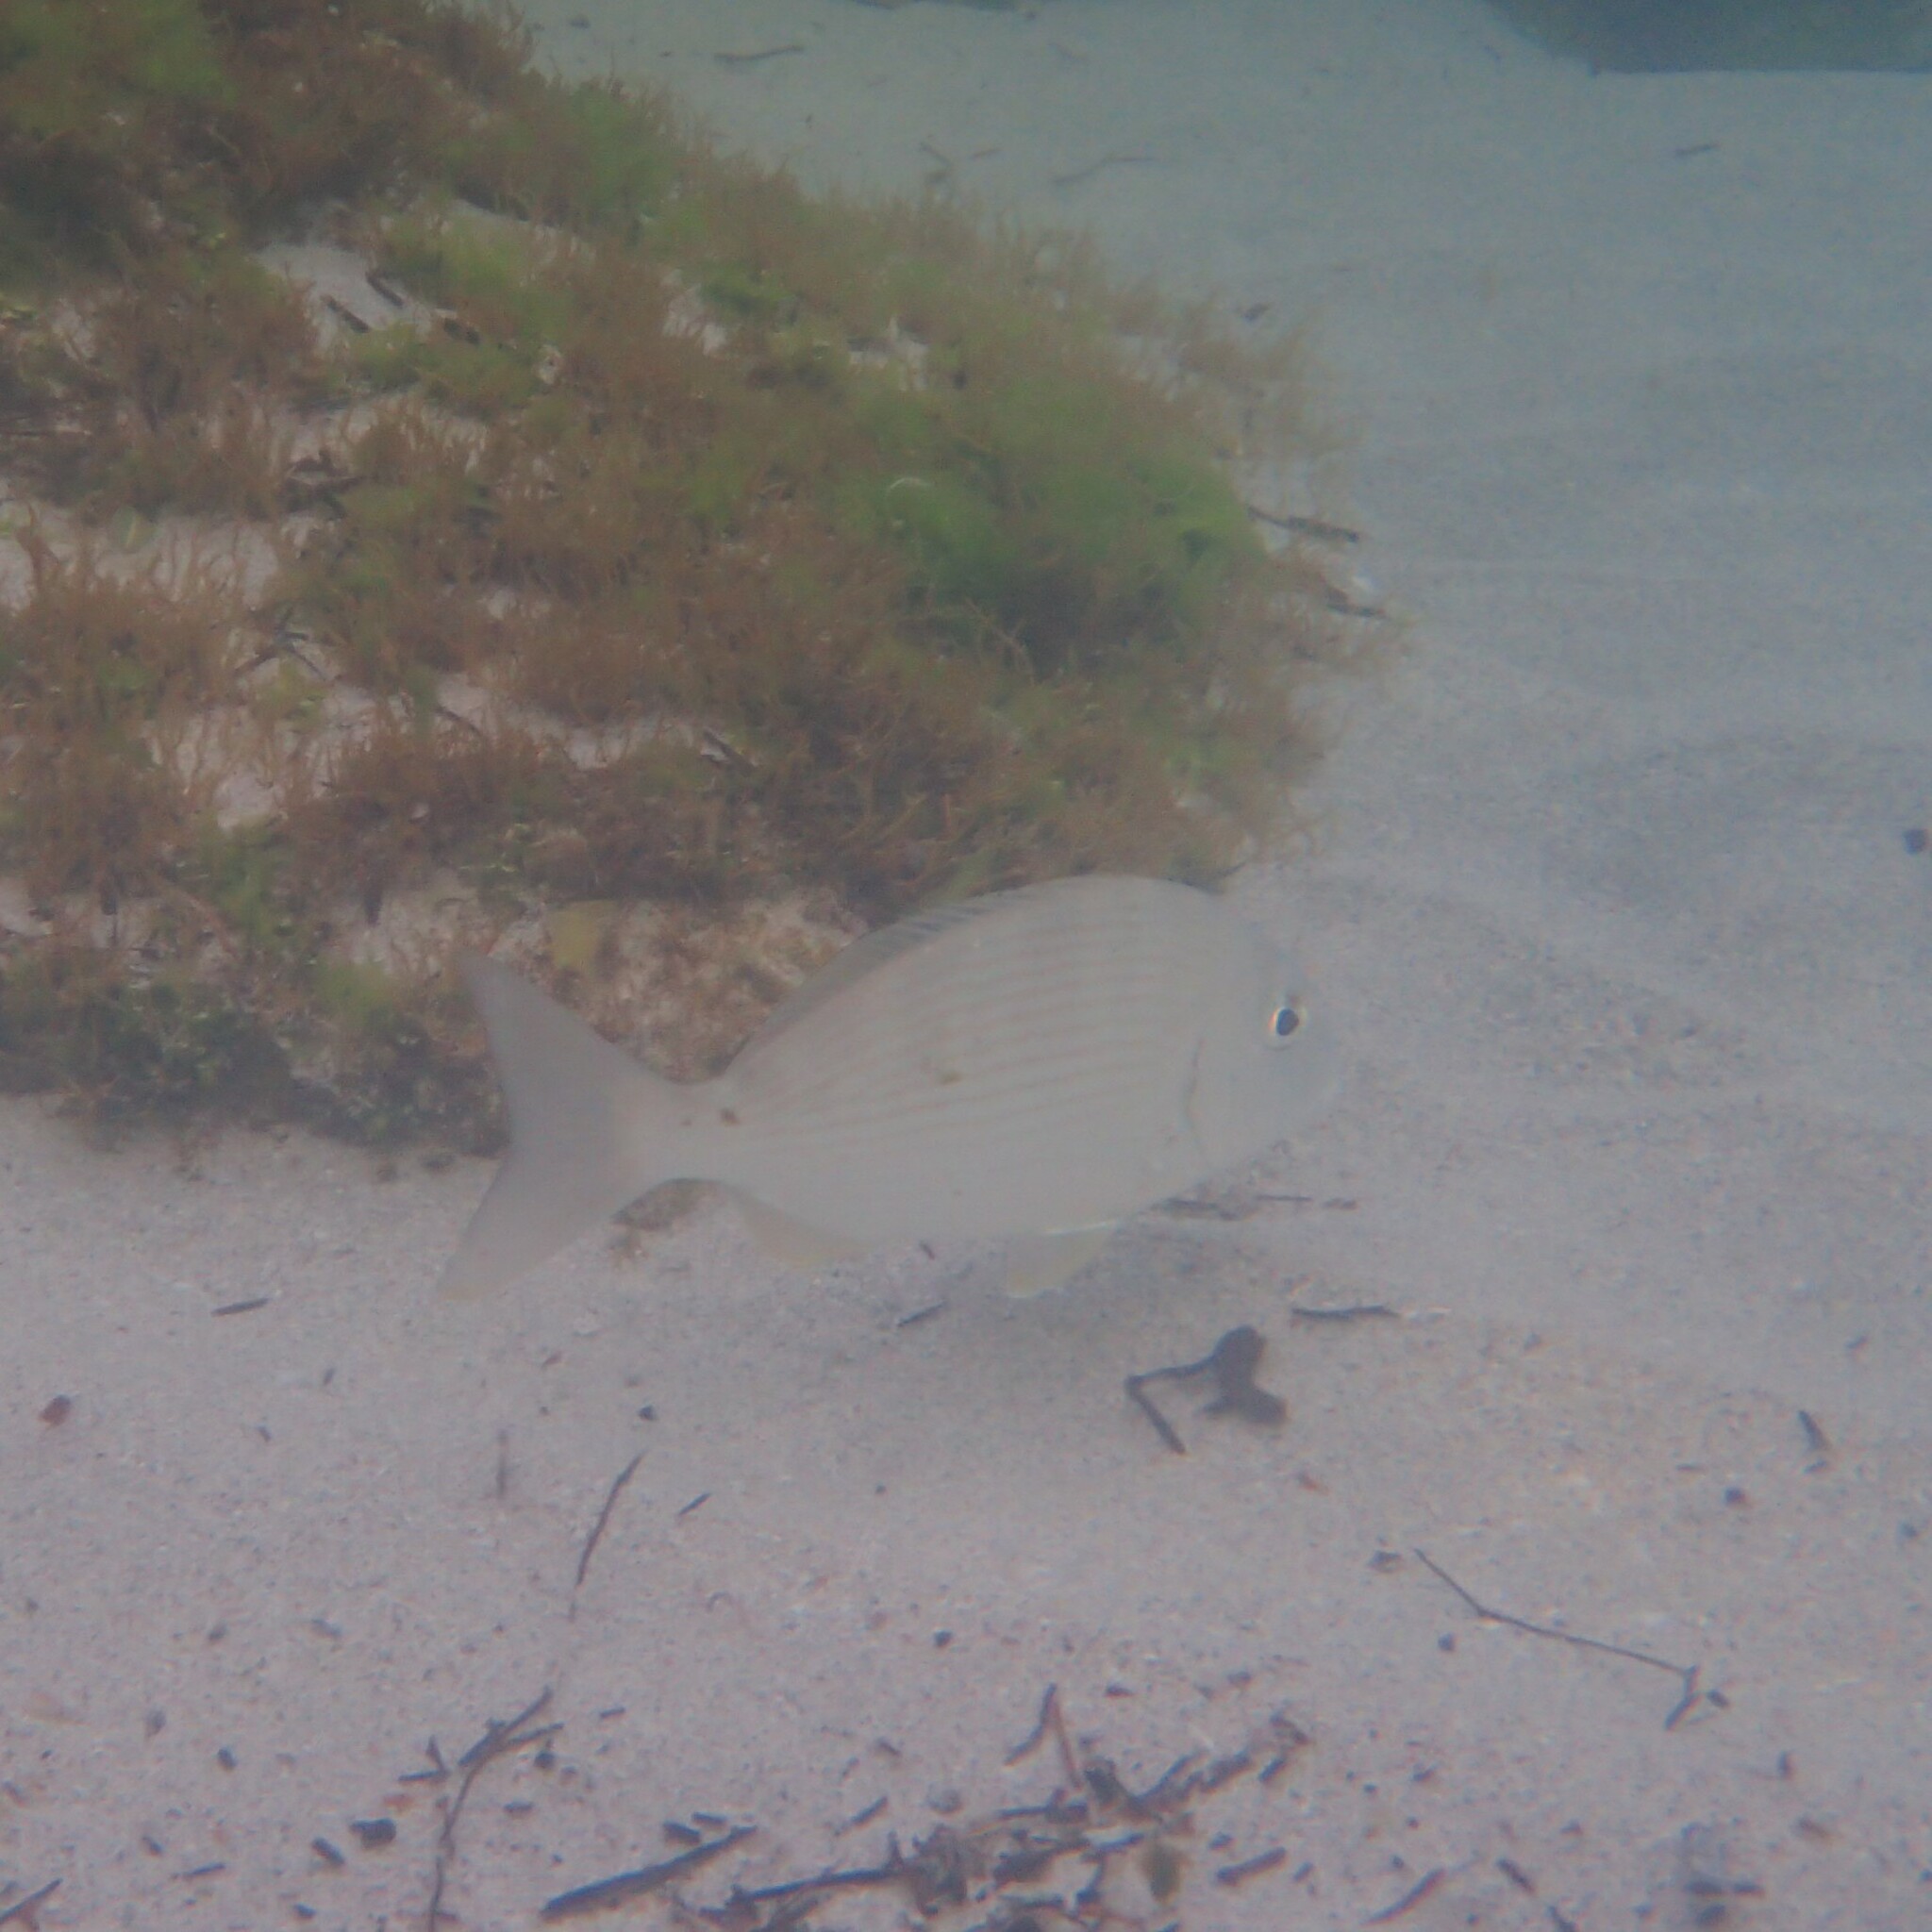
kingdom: Animalia
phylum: Chordata
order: Perciformes
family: Sparidae
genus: Rhabdosargus
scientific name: Rhabdosargus sarba
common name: Goldlined seabream
